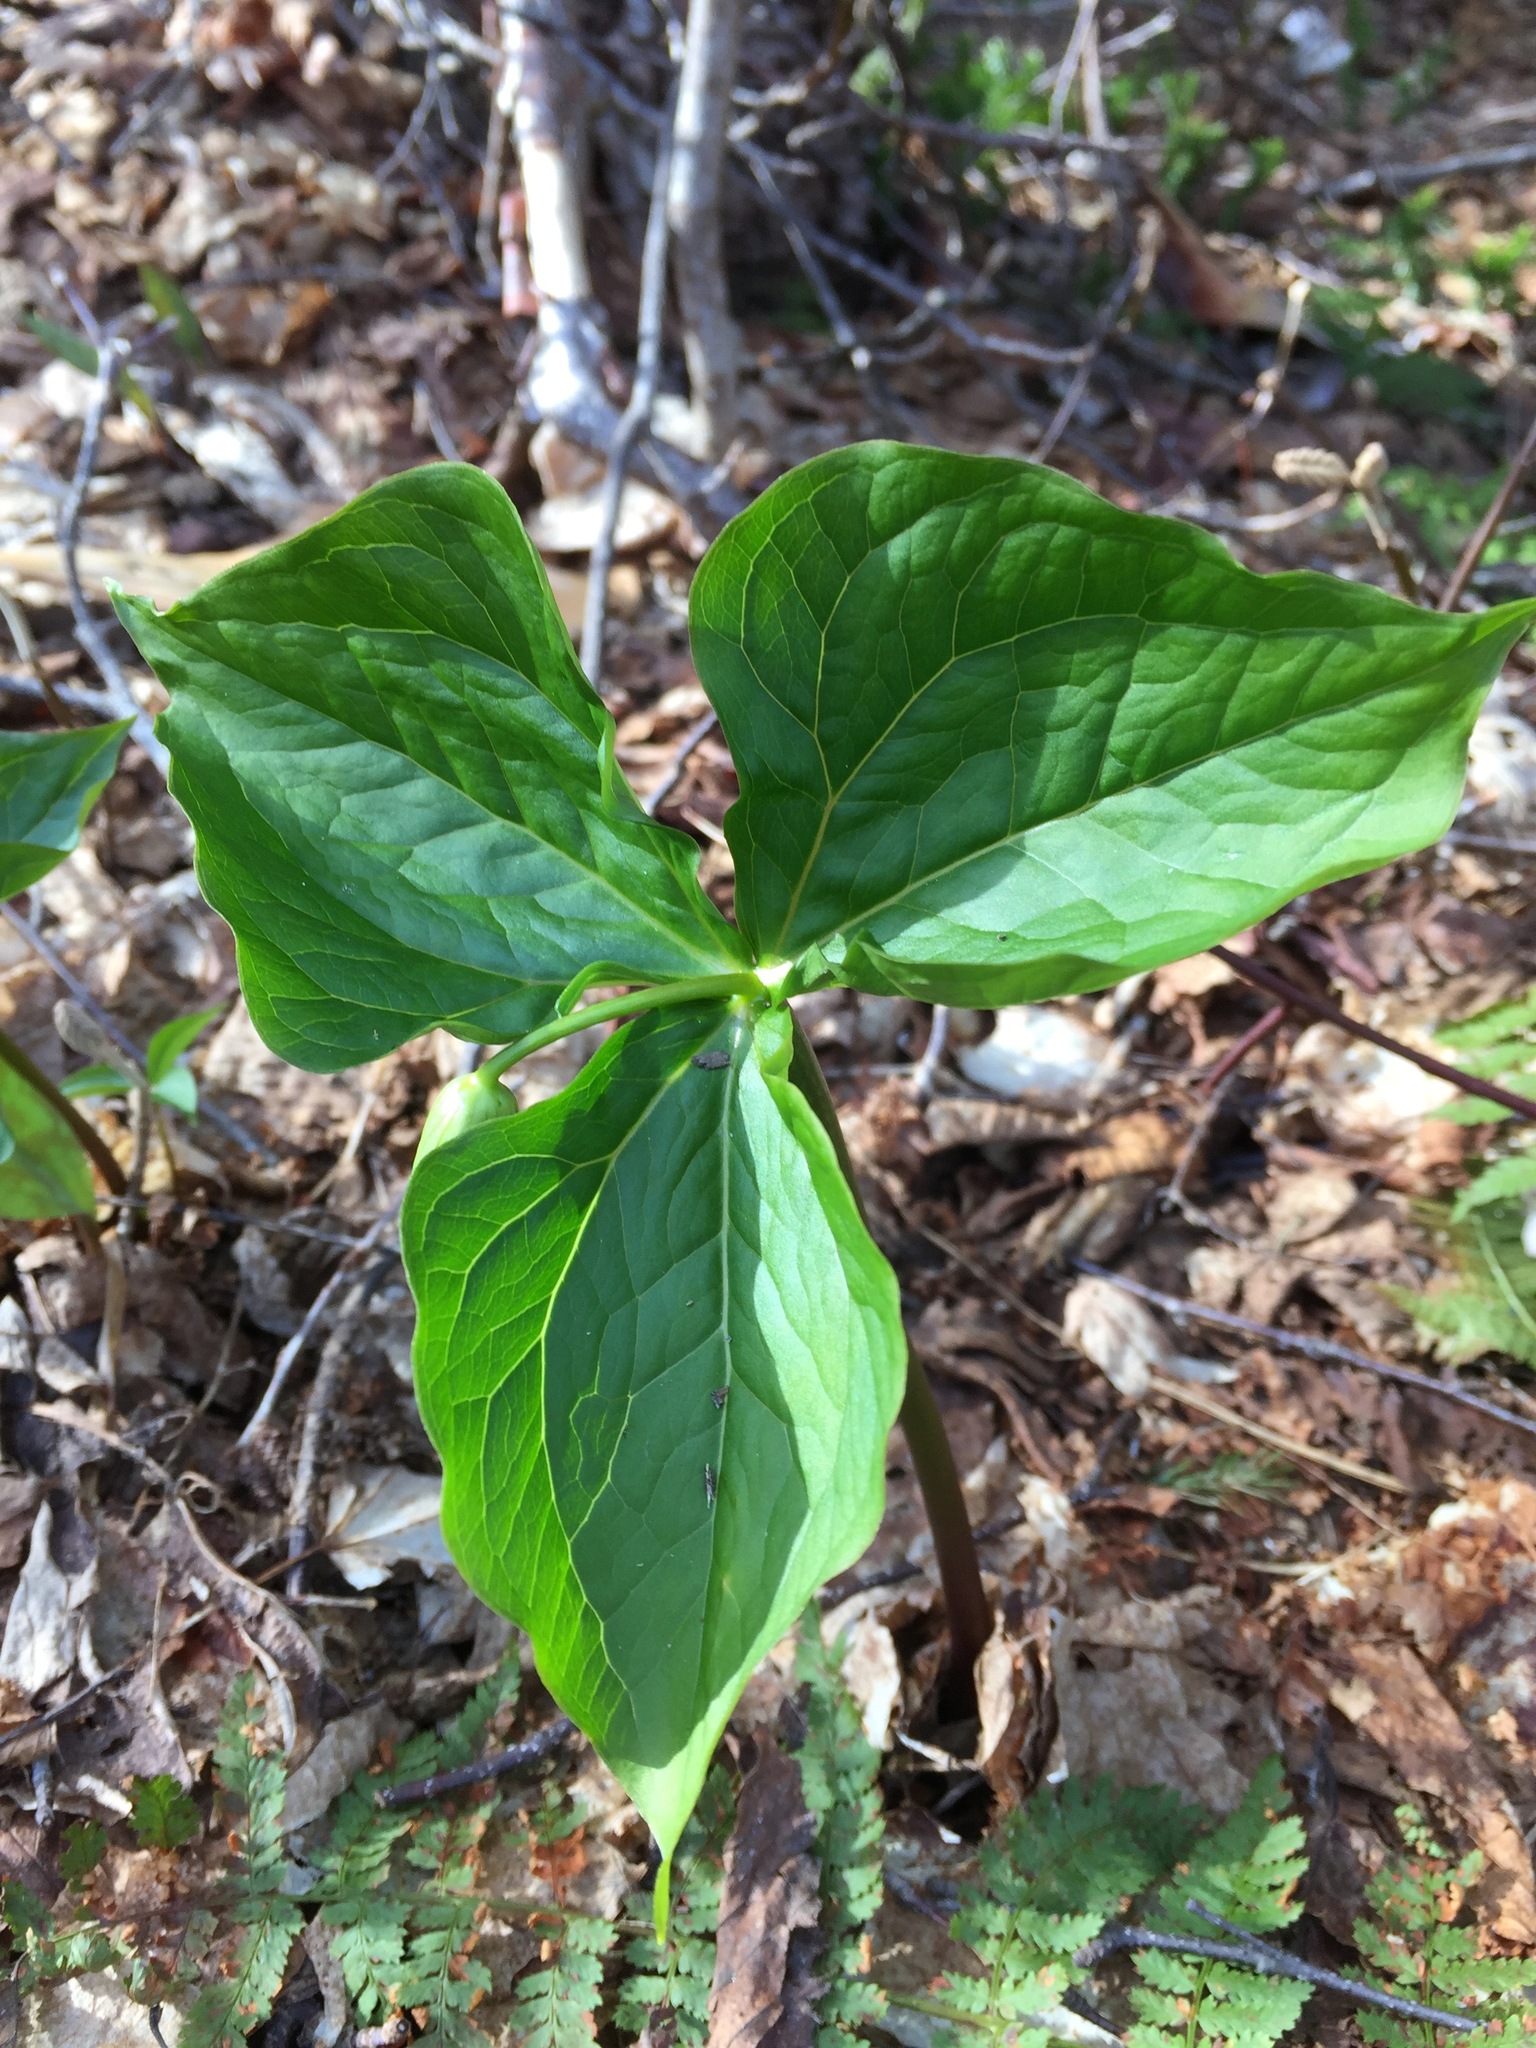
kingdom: Plantae
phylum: Tracheophyta
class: Liliopsida
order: Liliales
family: Melanthiaceae
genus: Trillium
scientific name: Trillium erectum
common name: Purple trillium
